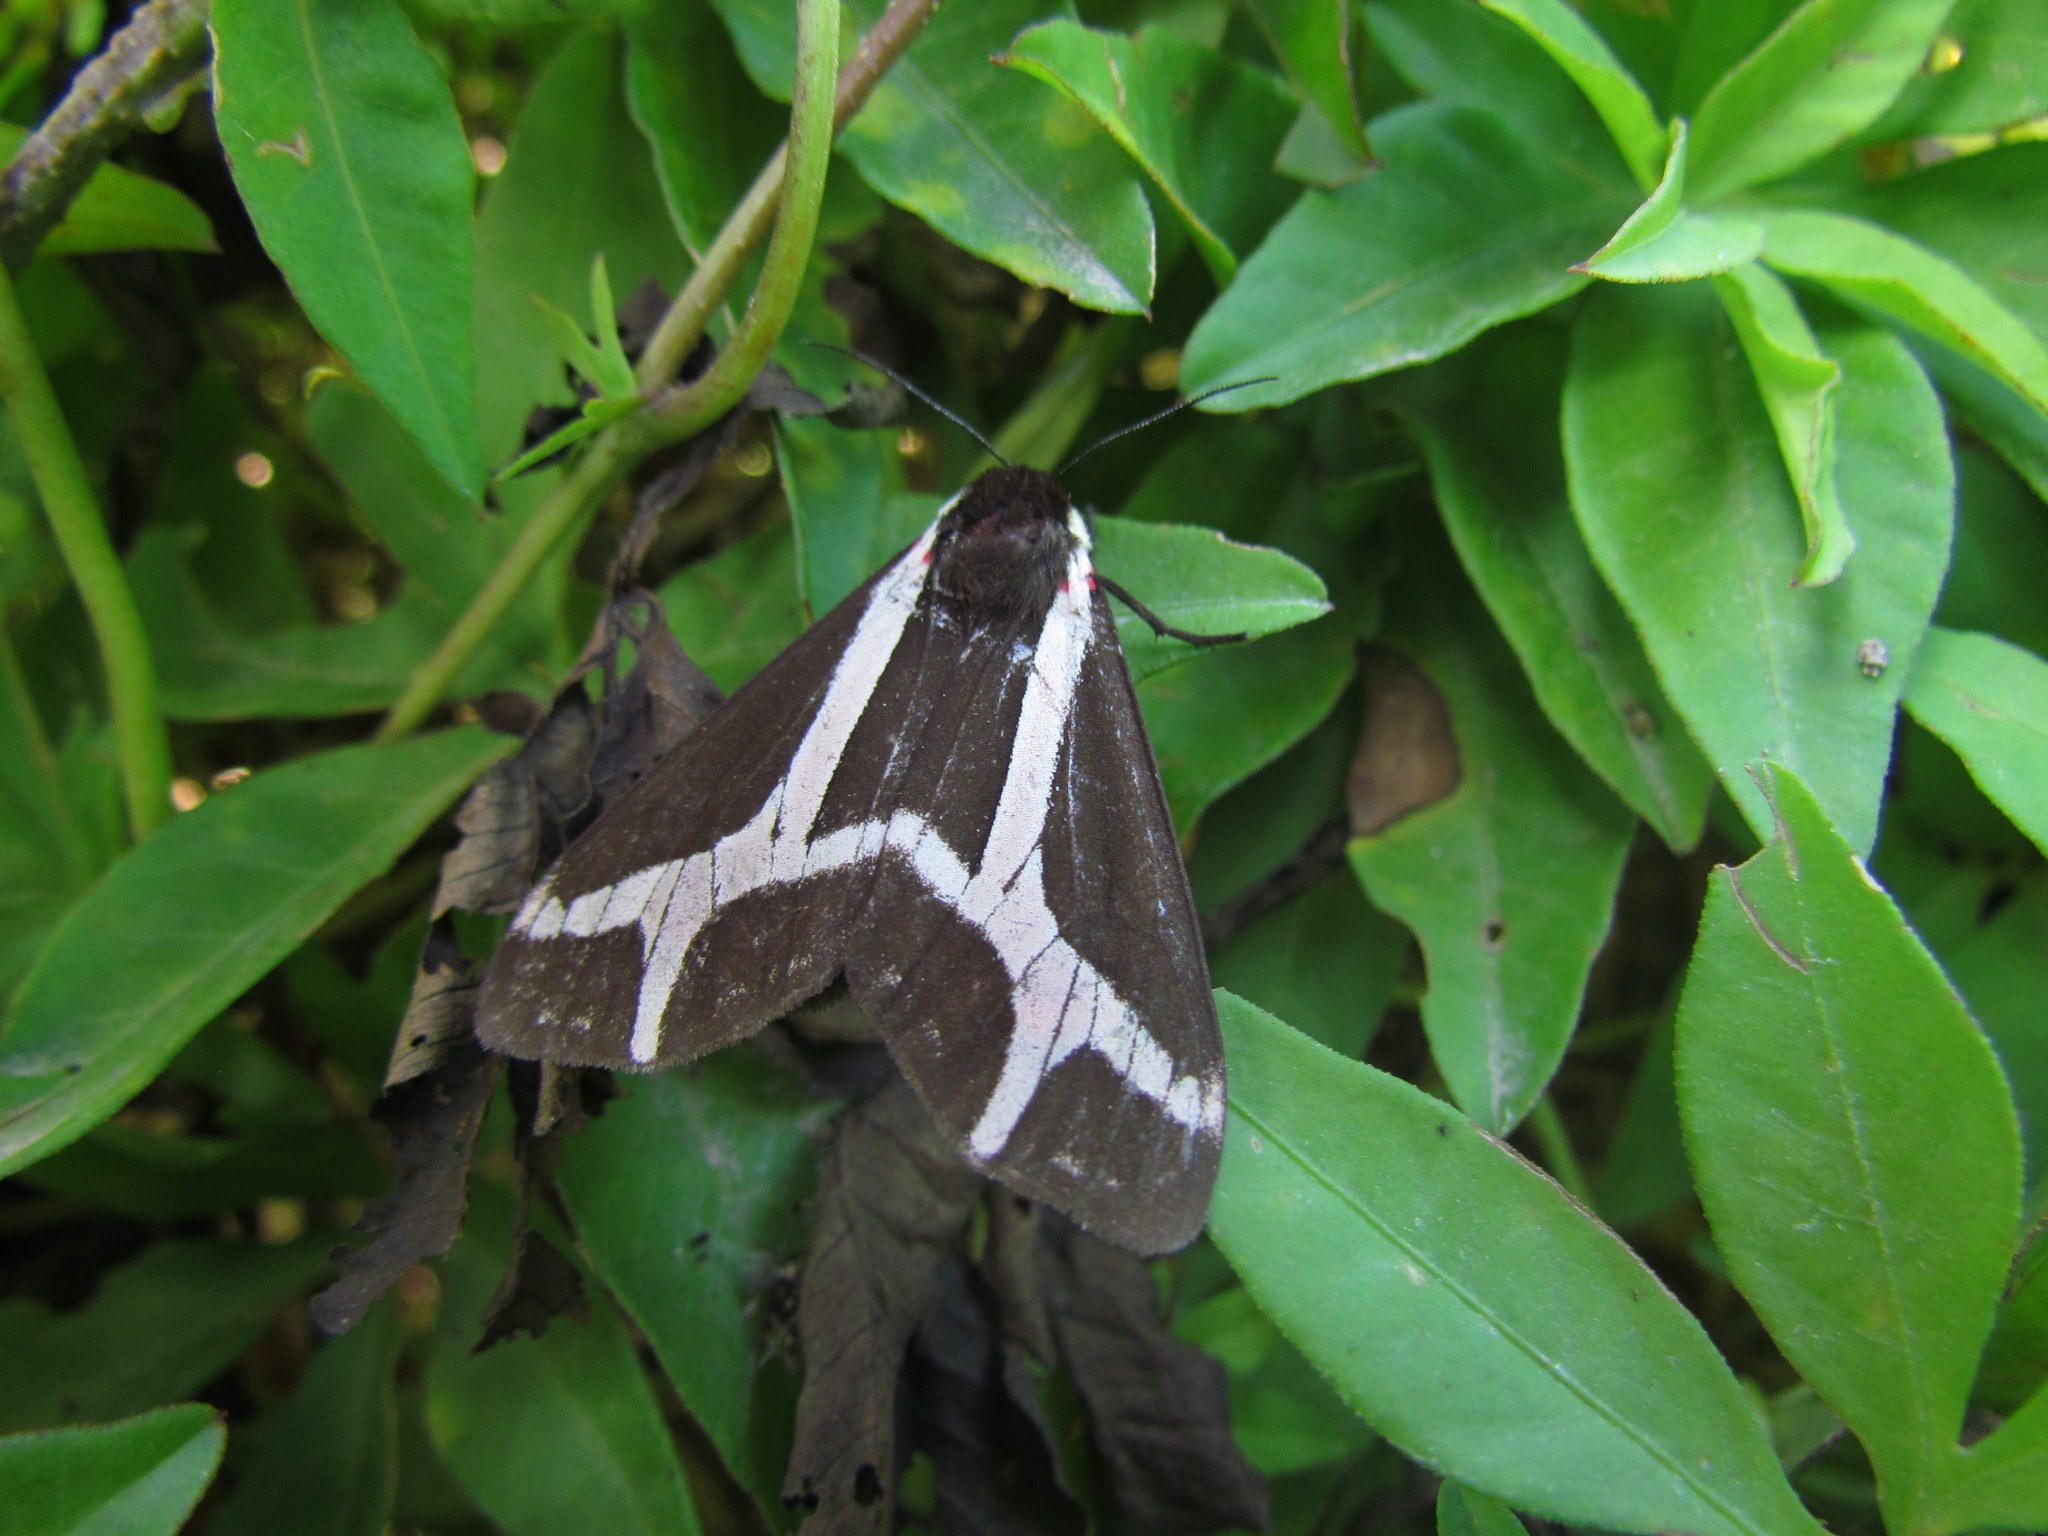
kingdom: Animalia
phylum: Arthropoda
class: Insecta
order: Lepidoptera
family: Erebidae
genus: Dysschema
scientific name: Dysschema sacrifica
